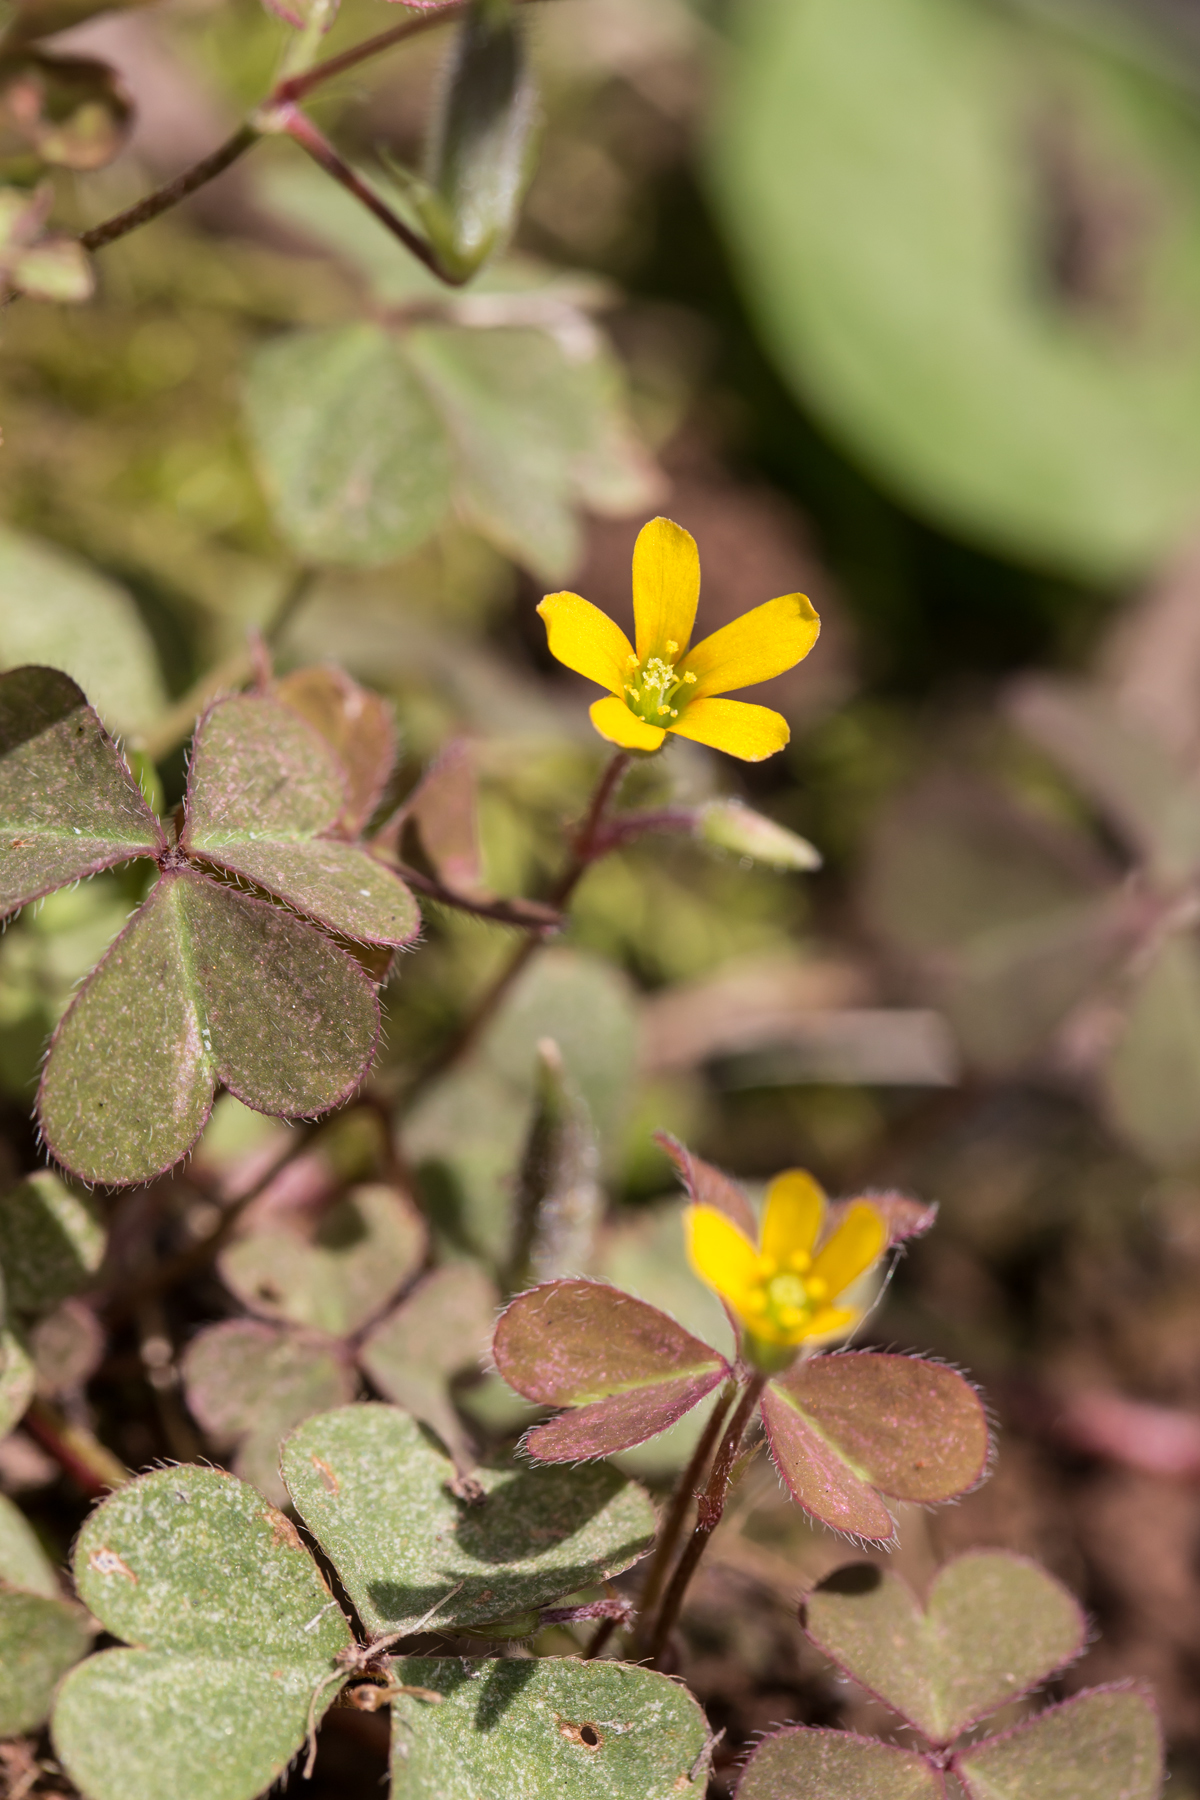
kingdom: Plantae
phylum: Tracheophyta
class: Magnoliopsida
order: Oxalidales
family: Oxalidaceae
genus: Oxalis
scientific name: Oxalis corniculata
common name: Procumbent yellow-sorrel
